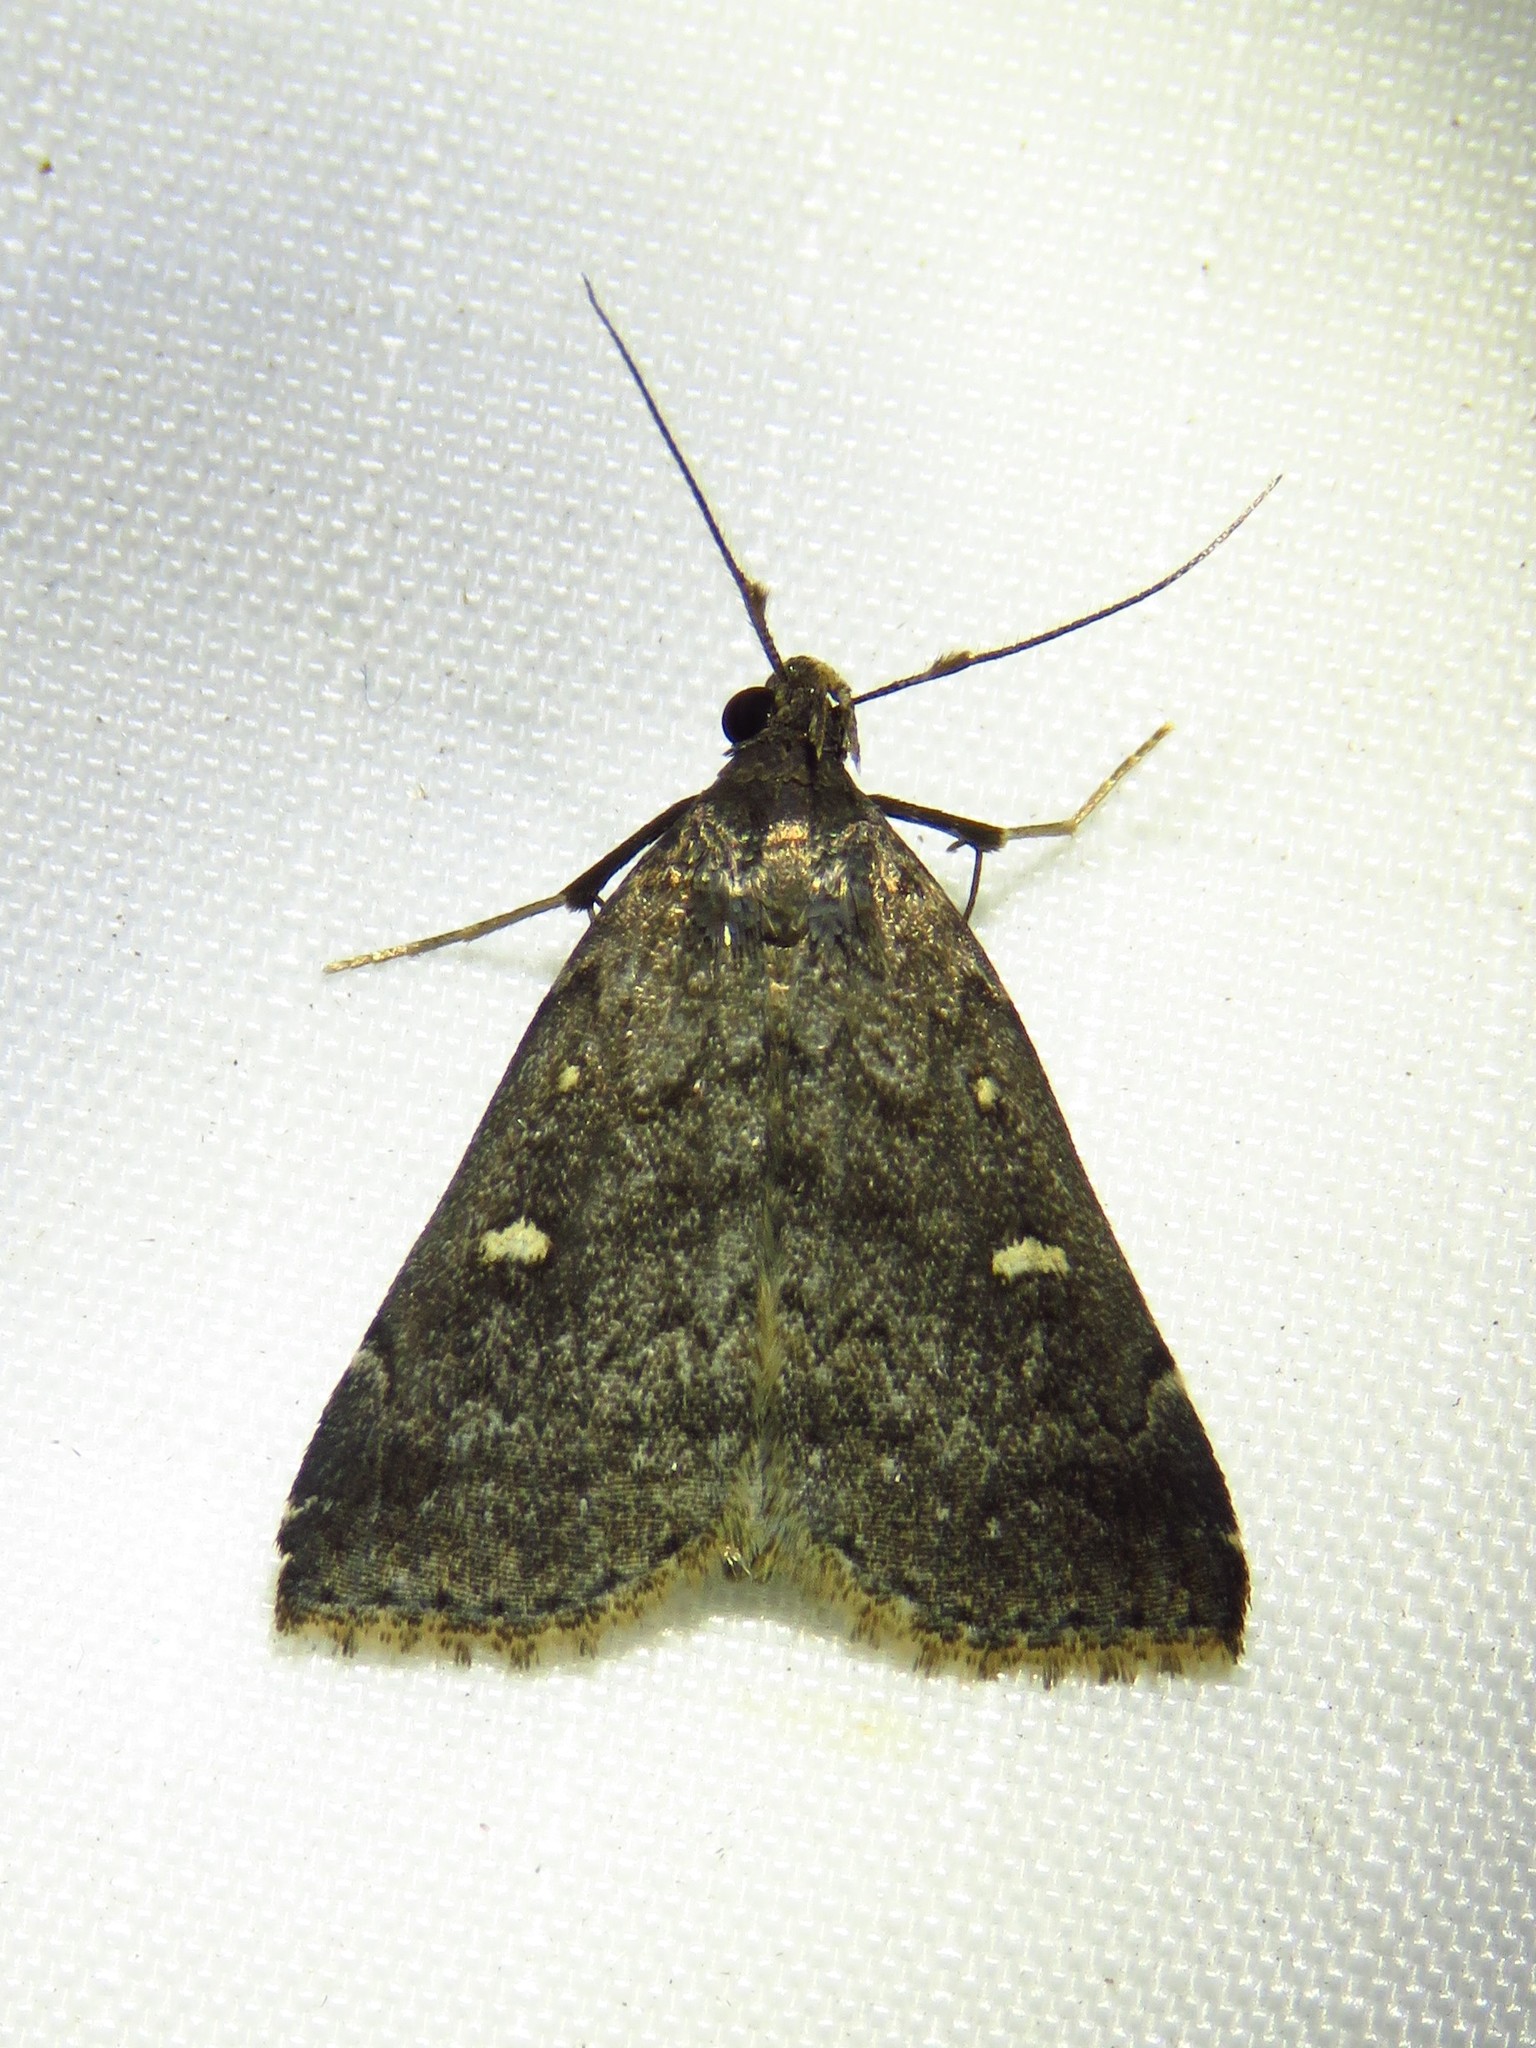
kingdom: Animalia
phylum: Arthropoda
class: Insecta
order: Lepidoptera
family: Erebidae
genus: Tetanolita
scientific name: Tetanolita mynesalis
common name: Smoky tetanolita moth
